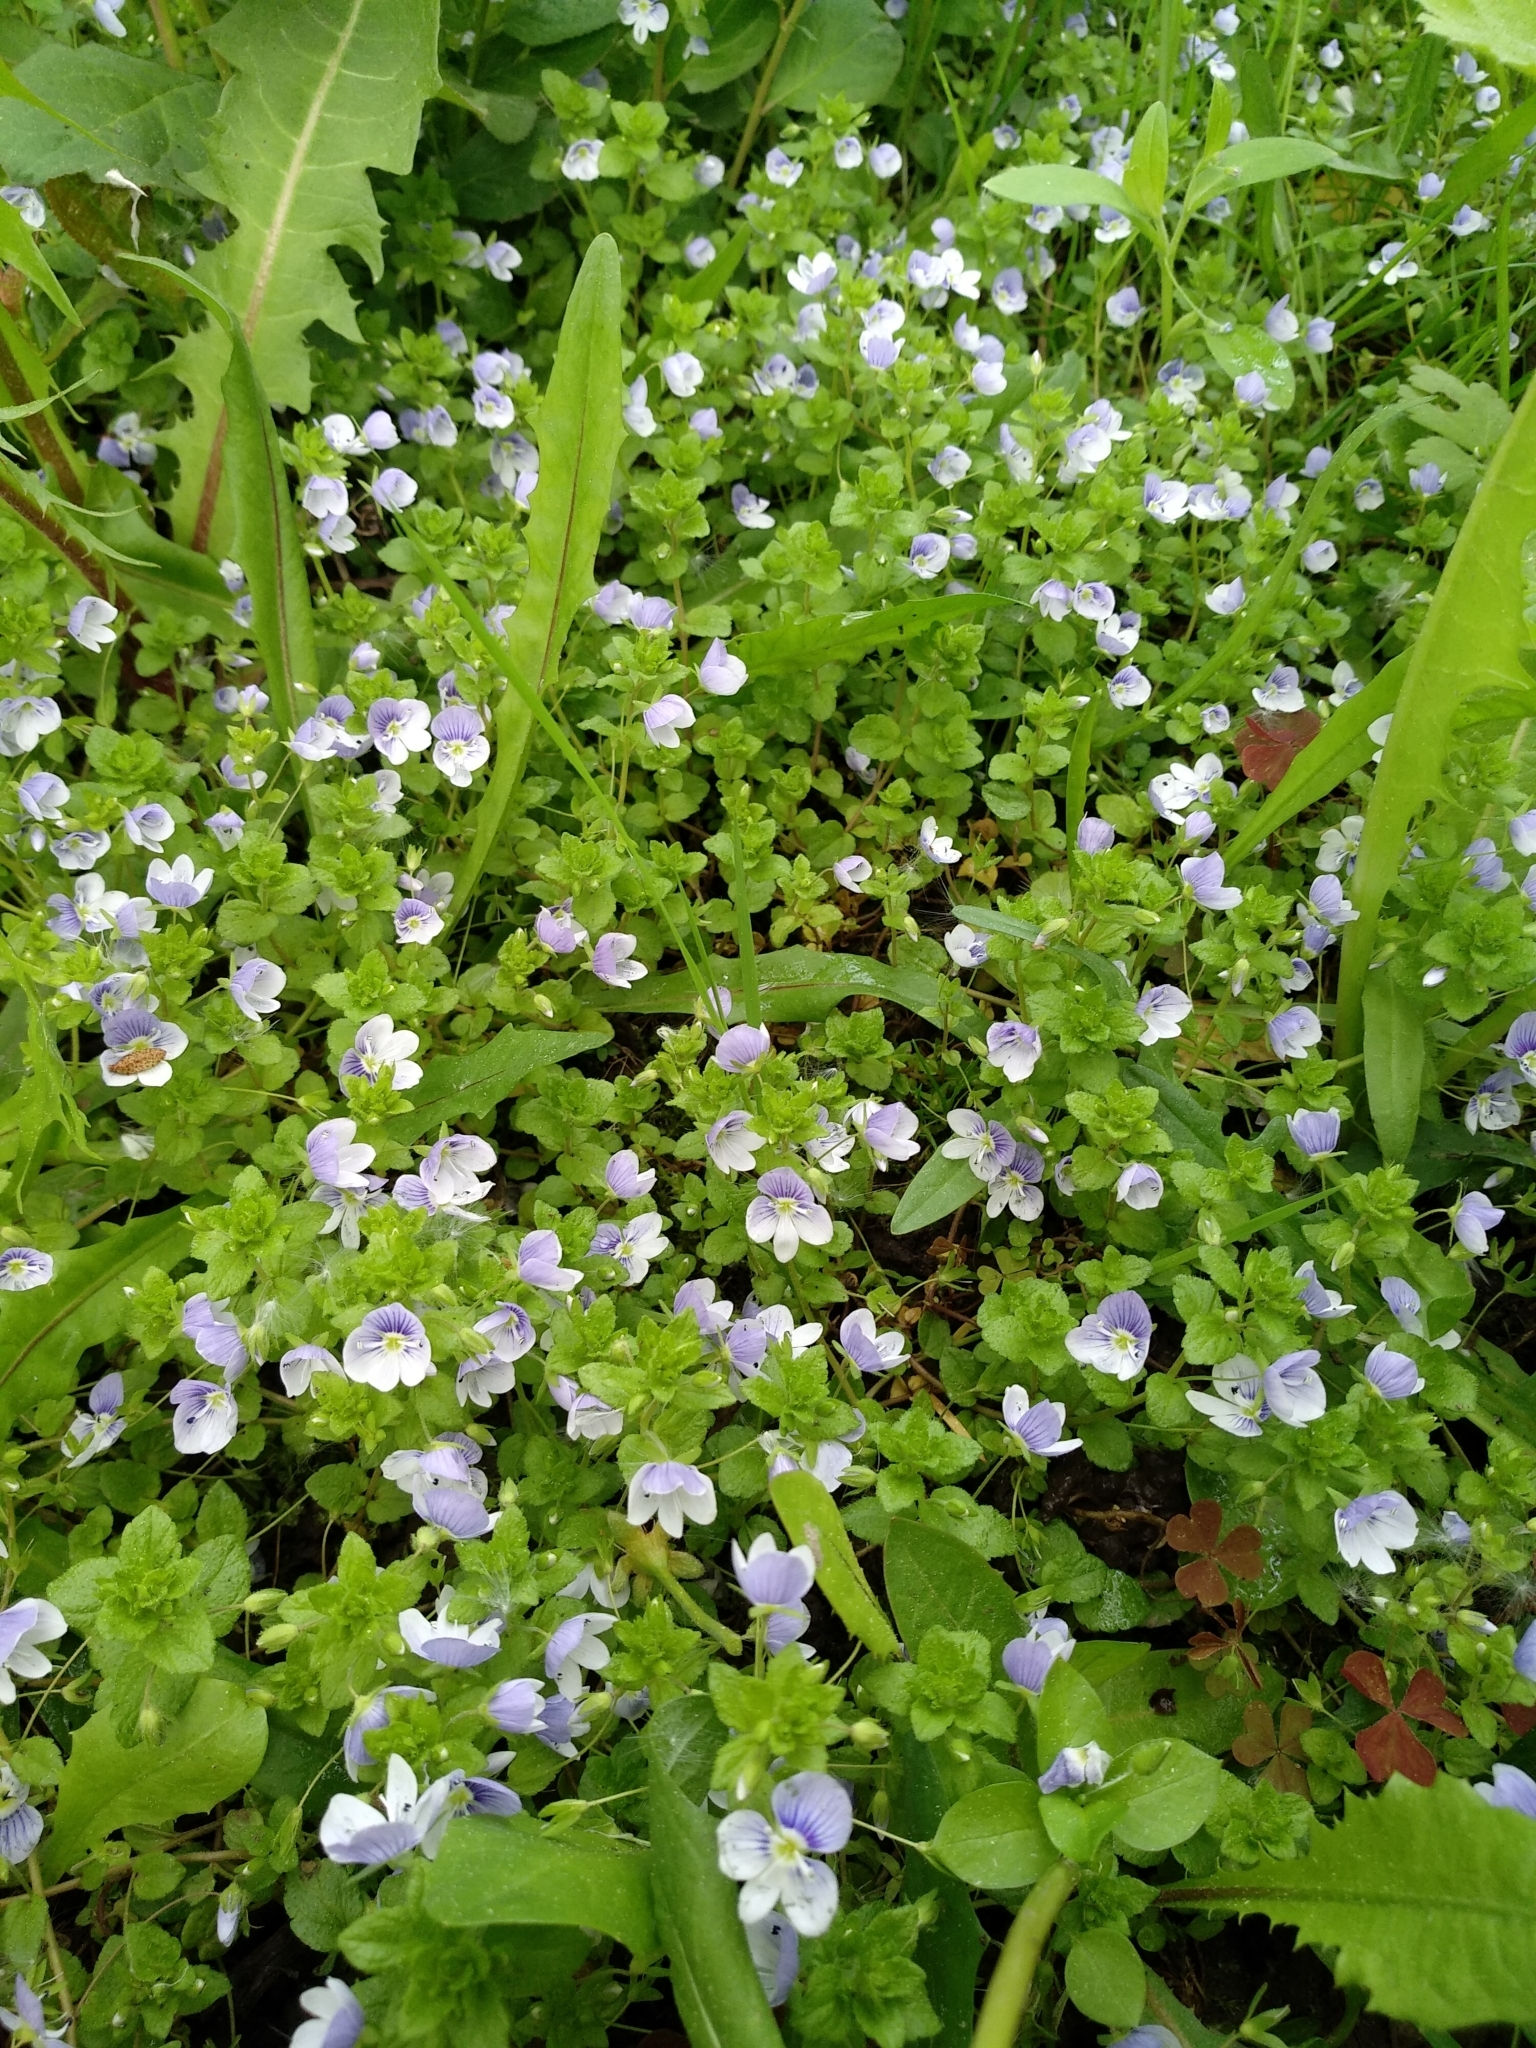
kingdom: Plantae
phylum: Tracheophyta
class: Magnoliopsida
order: Lamiales
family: Plantaginaceae
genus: Veronica
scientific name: Veronica filiformis
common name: Slender speedwell
